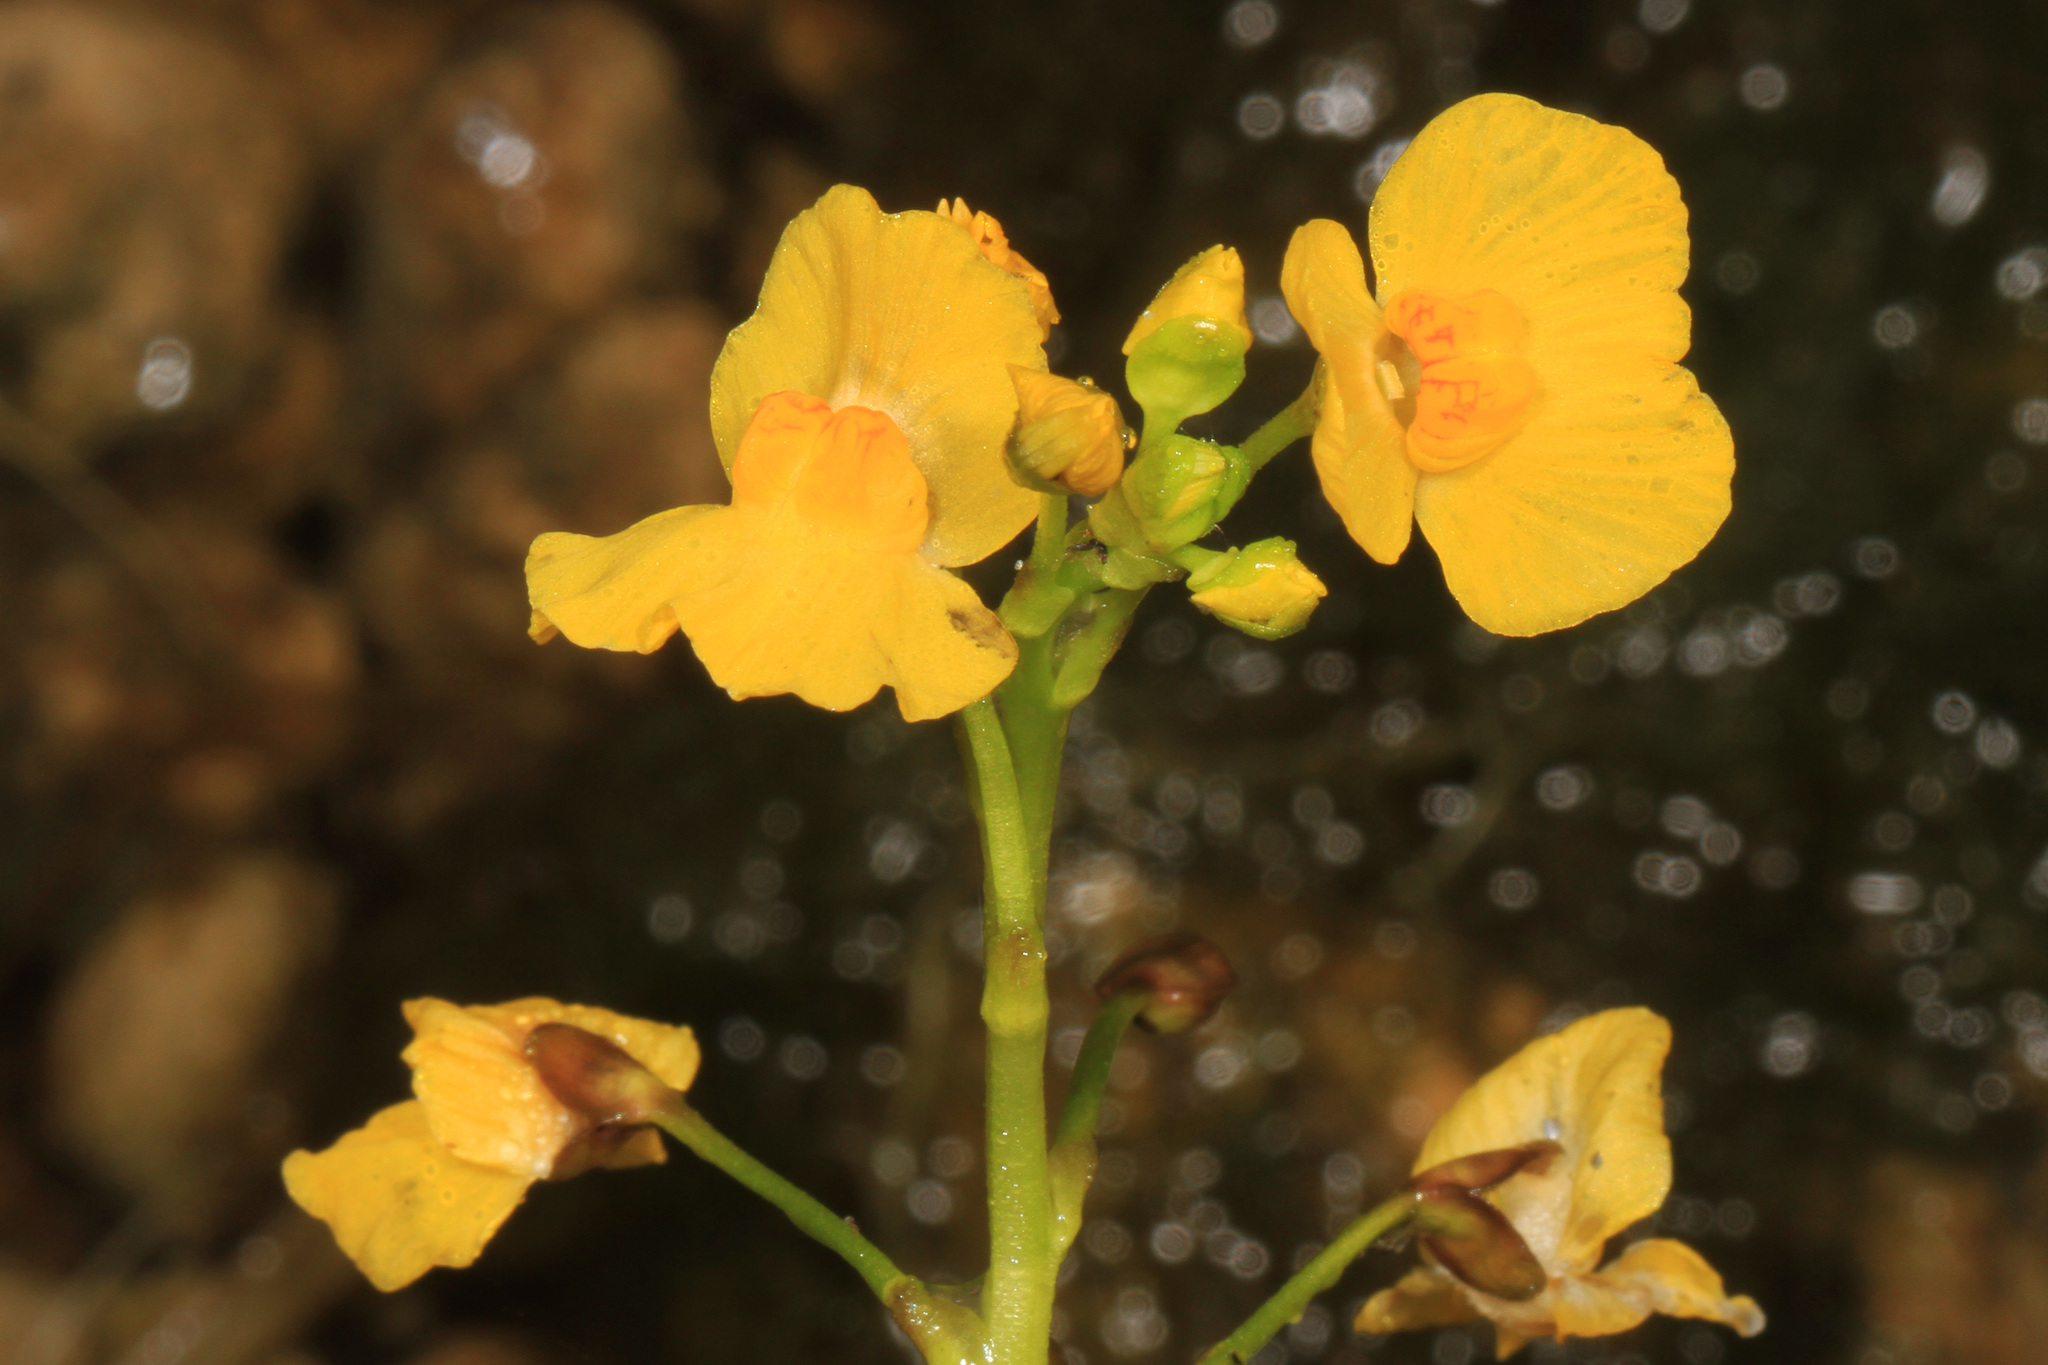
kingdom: Plantae
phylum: Tracheophyta
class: Magnoliopsida
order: Lamiales
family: Lentibulariaceae
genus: Utricularia
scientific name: Utricularia foliosa
